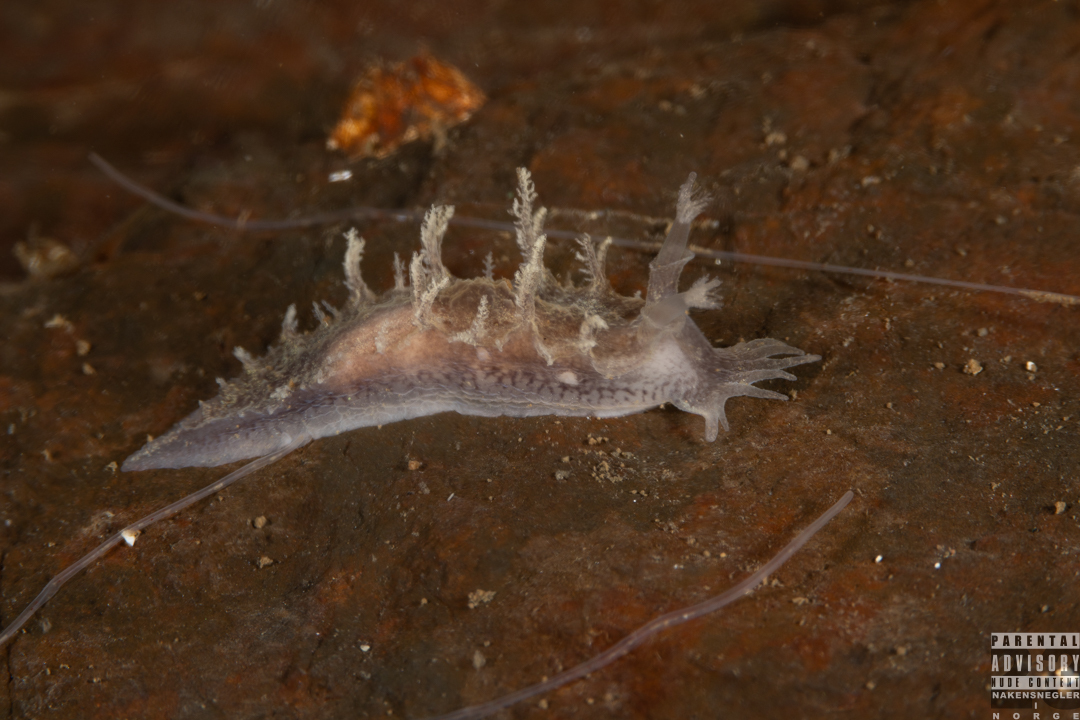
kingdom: Animalia
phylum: Mollusca
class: Gastropoda
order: Nudibranchia
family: Tritoniidae
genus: Duvaucelia
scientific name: Duvaucelia plebeia
